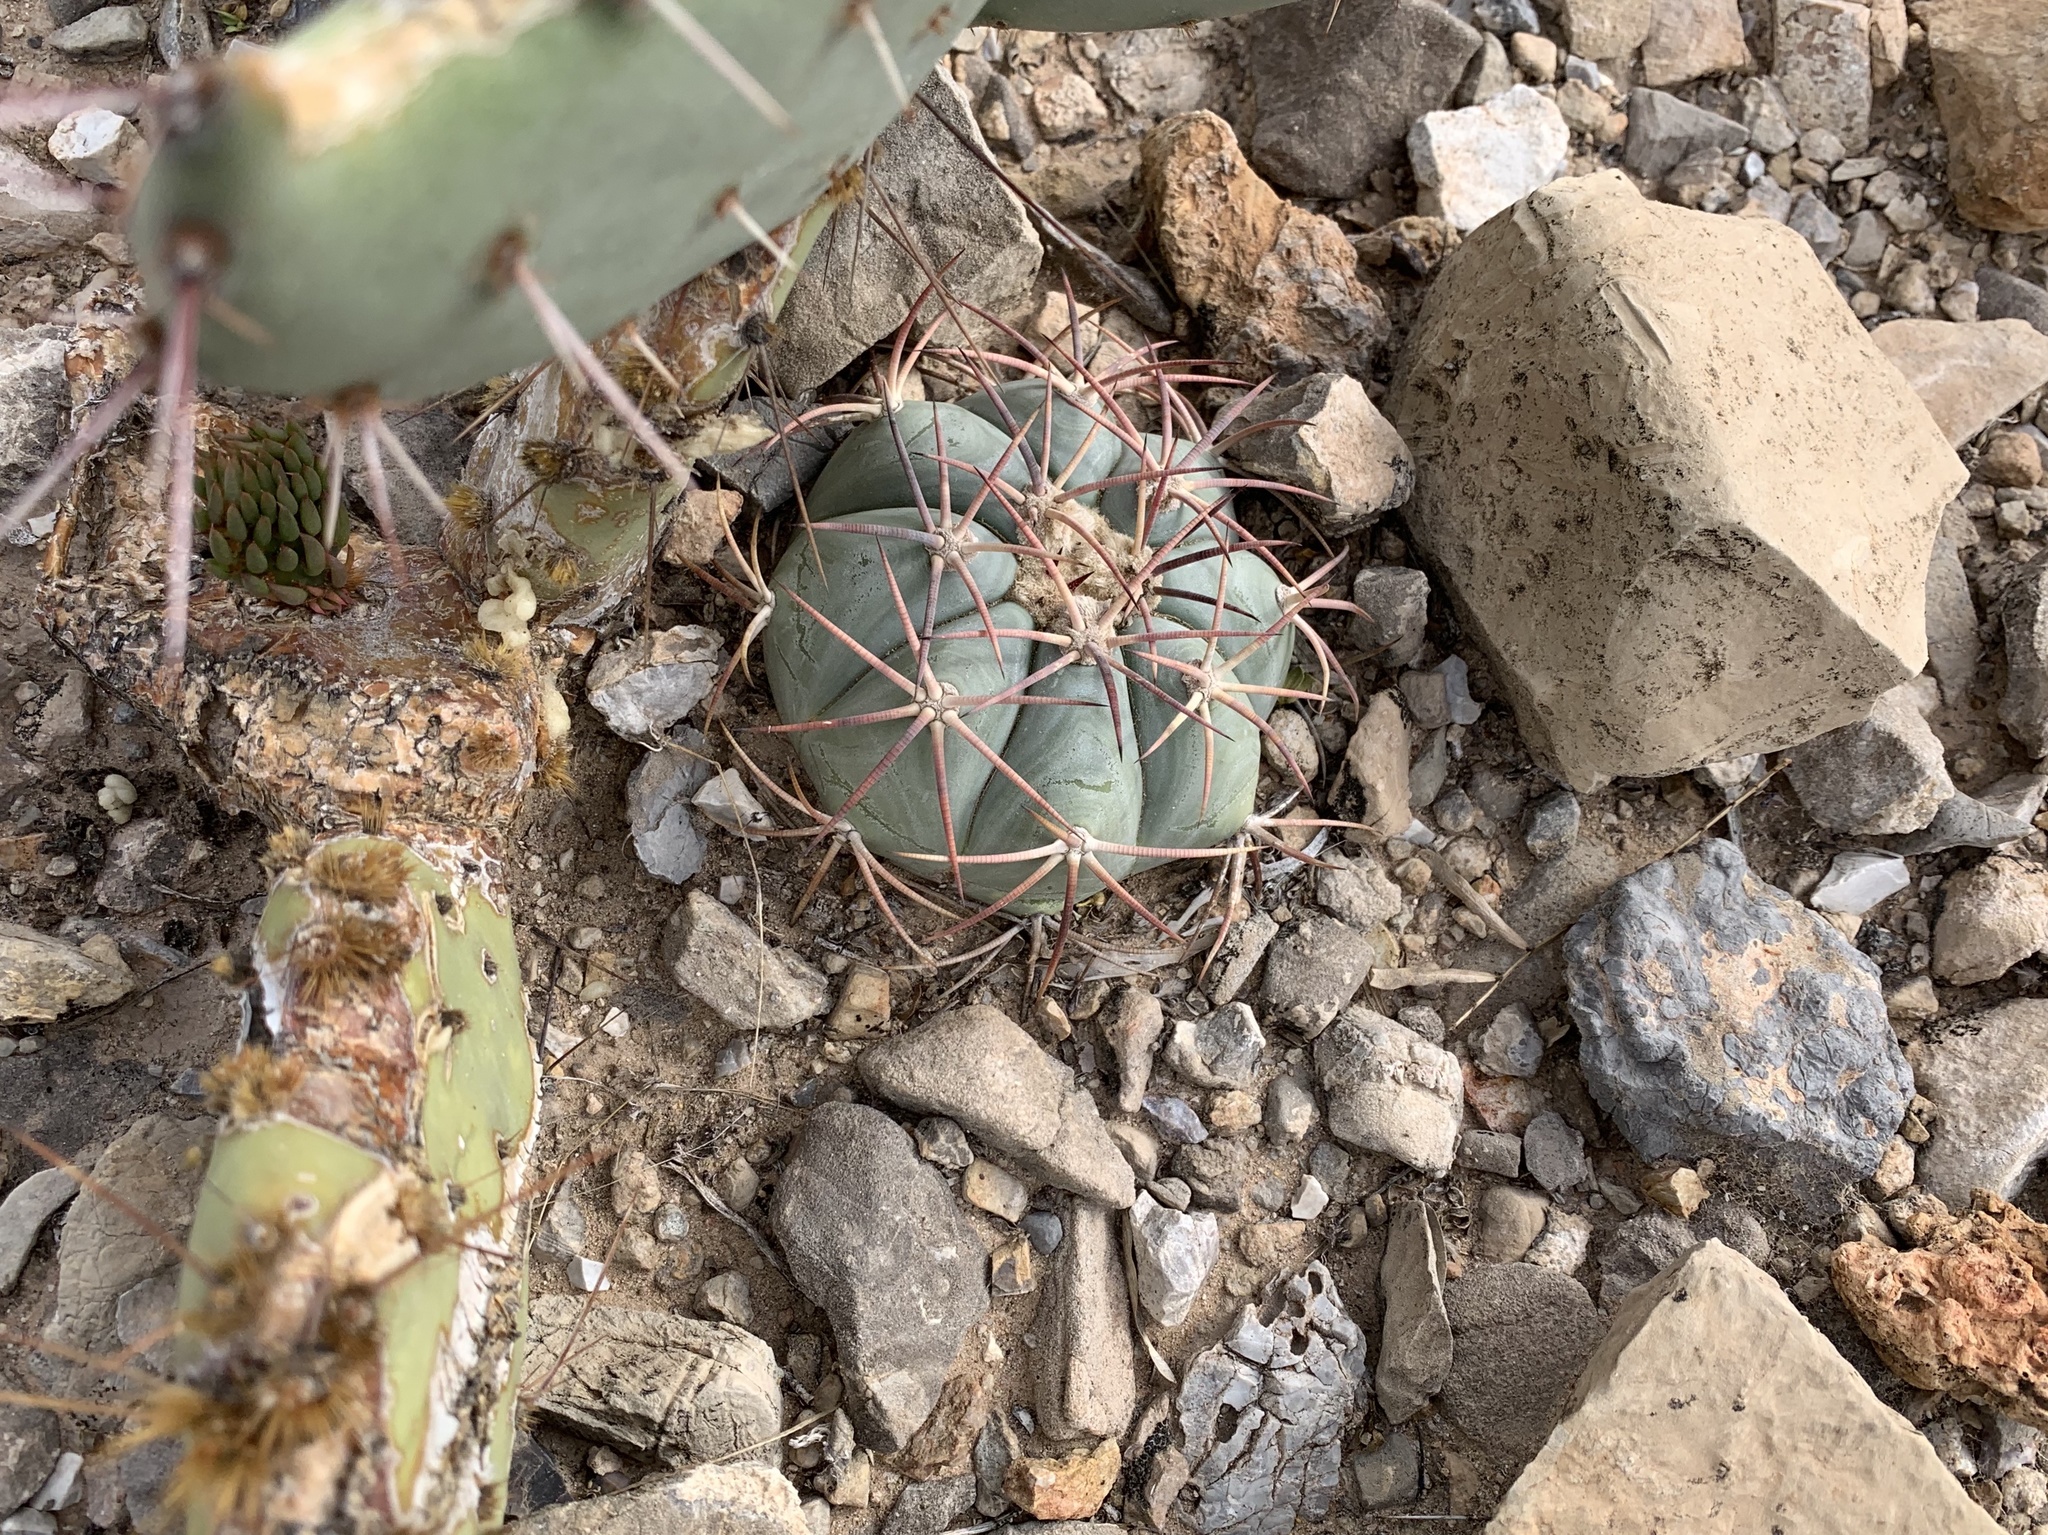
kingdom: Plantae
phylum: Tracheophyta
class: Magnoliopsida
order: Caryophyllales
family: Cactaceae
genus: Echinocactus
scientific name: Echinocactus horizonthalonius
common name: Devilshead
